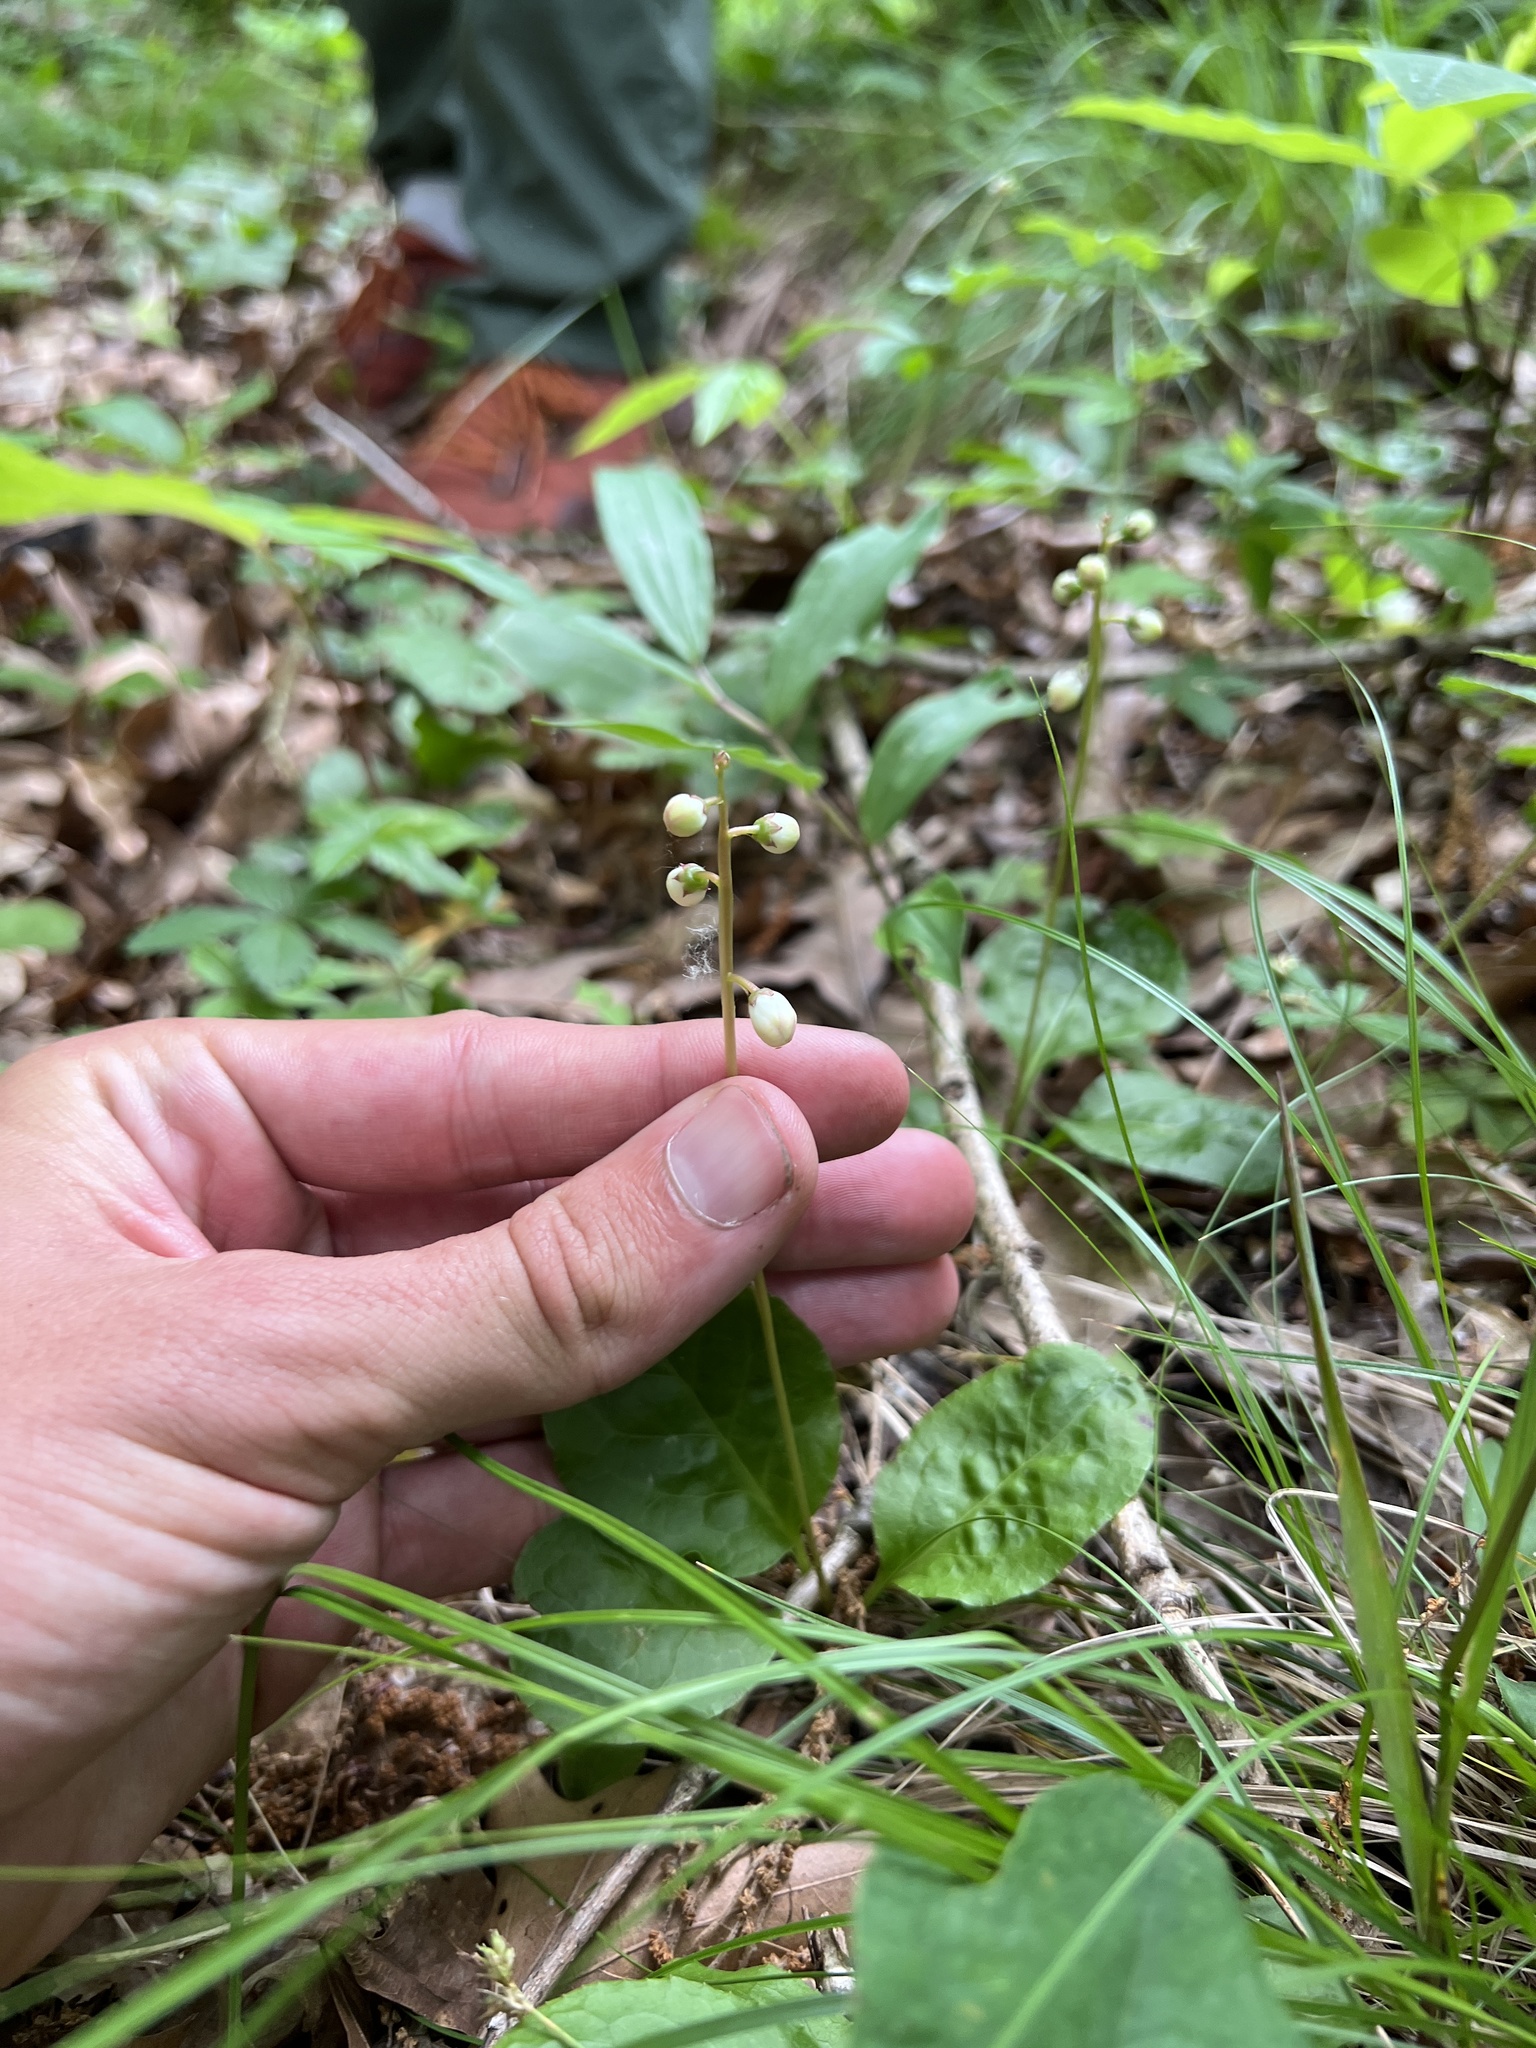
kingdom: Plantae
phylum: Tracheophyta
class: Magnoliopsida
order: Ericales
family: Ericaceae
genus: Pyrola
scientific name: Pyrola elliptica
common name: Shinleaf
